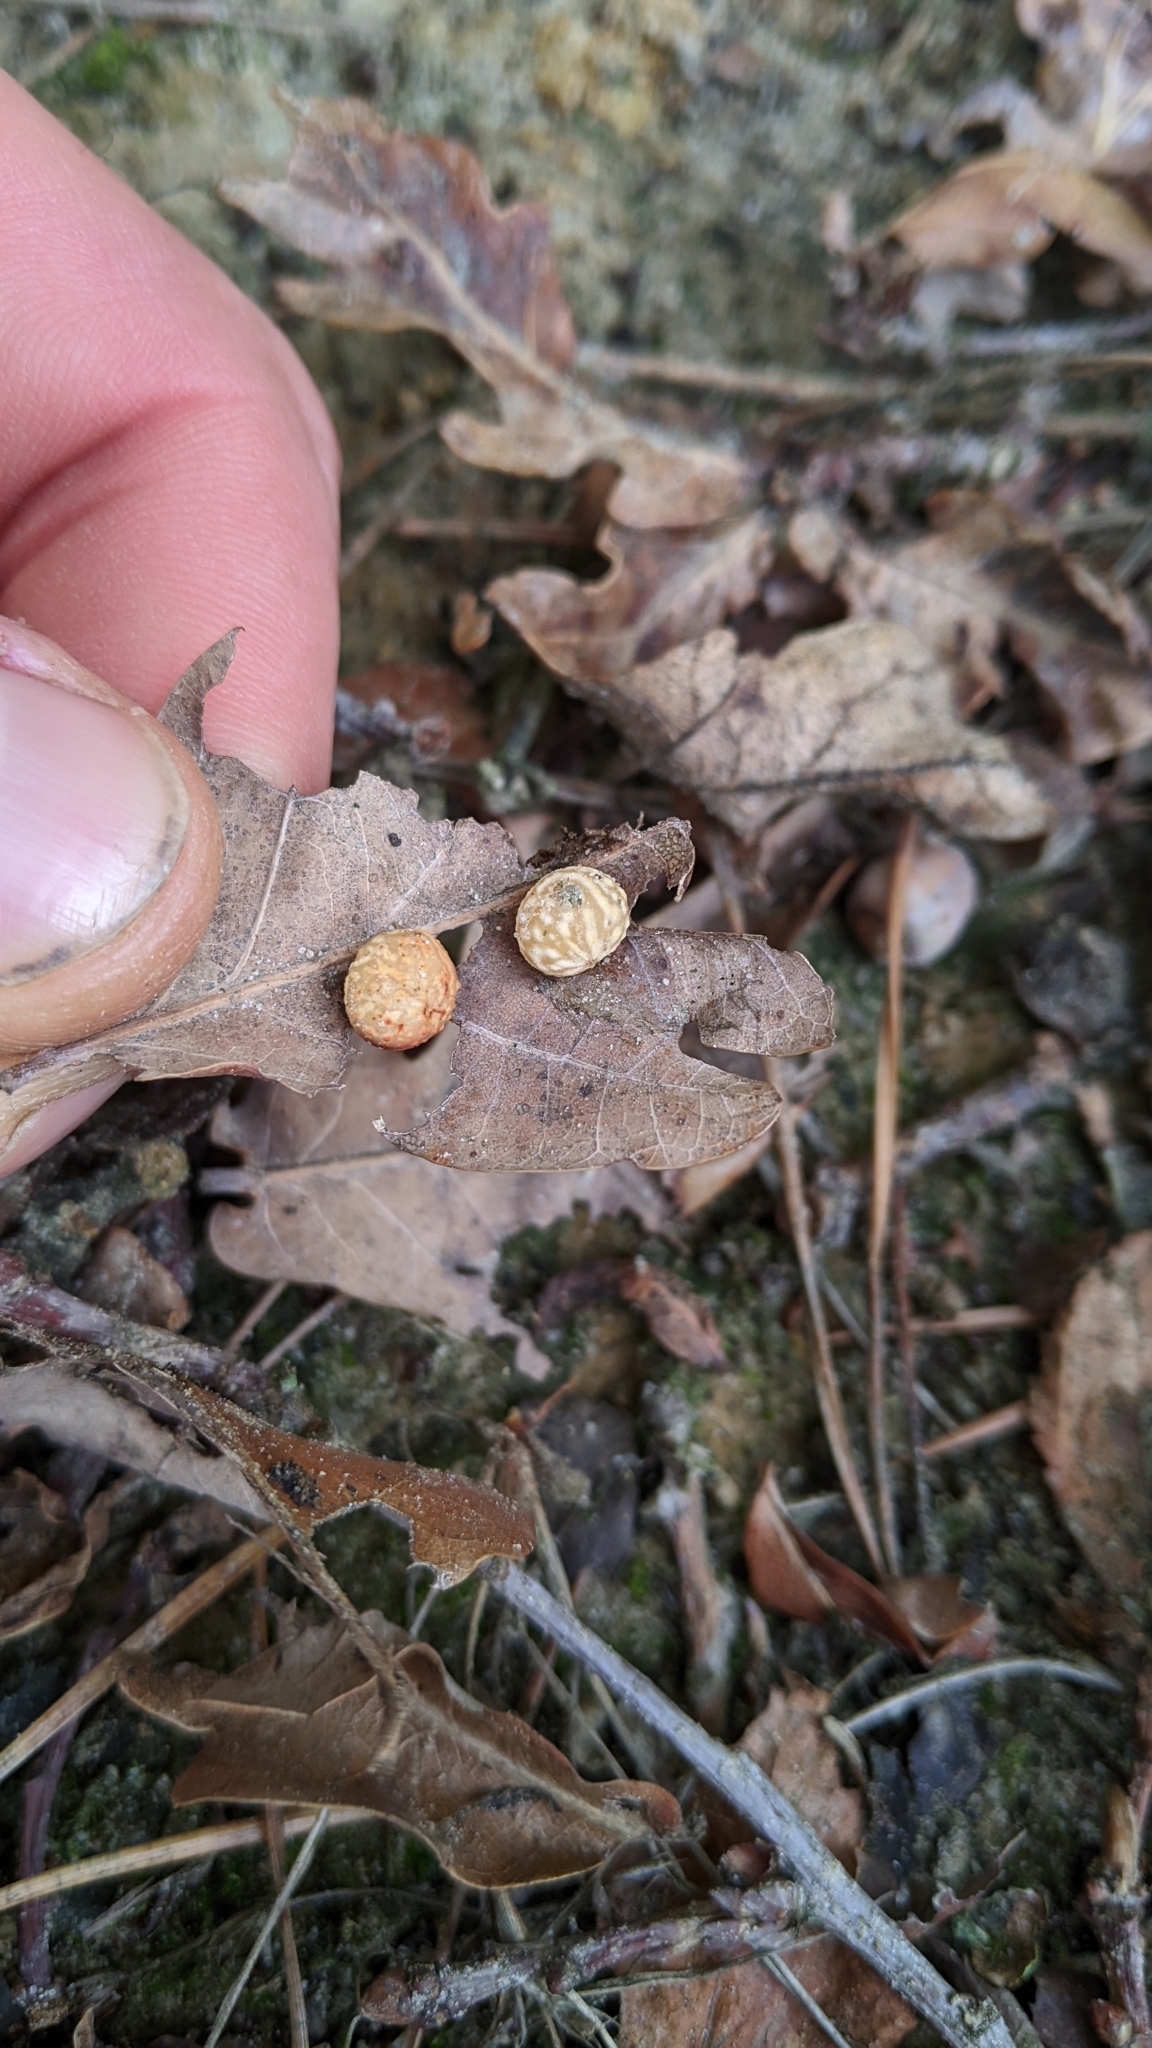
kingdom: Animalia
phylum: Arthropoda
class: Insecta
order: Hymenoptera
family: Cynipidae
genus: Cynips
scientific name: Cynips longiventris
